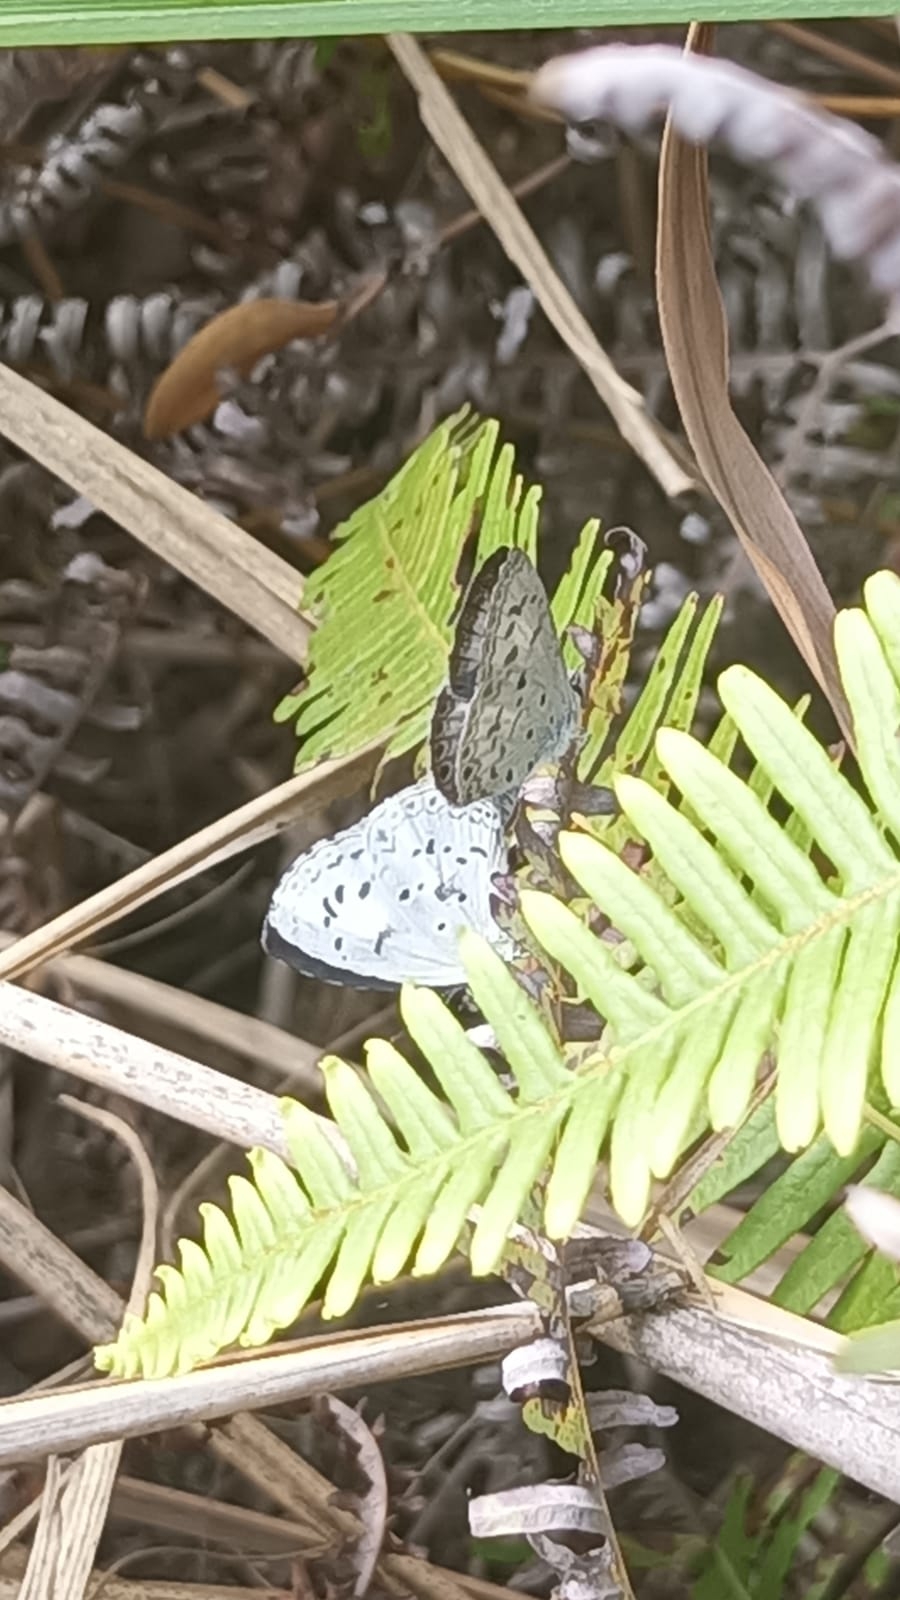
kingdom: Animalia
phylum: Arthropoda
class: Insecta
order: Lepidoptera
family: Lycaenidae
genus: Acytolepis
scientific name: Acytolepis puspa
